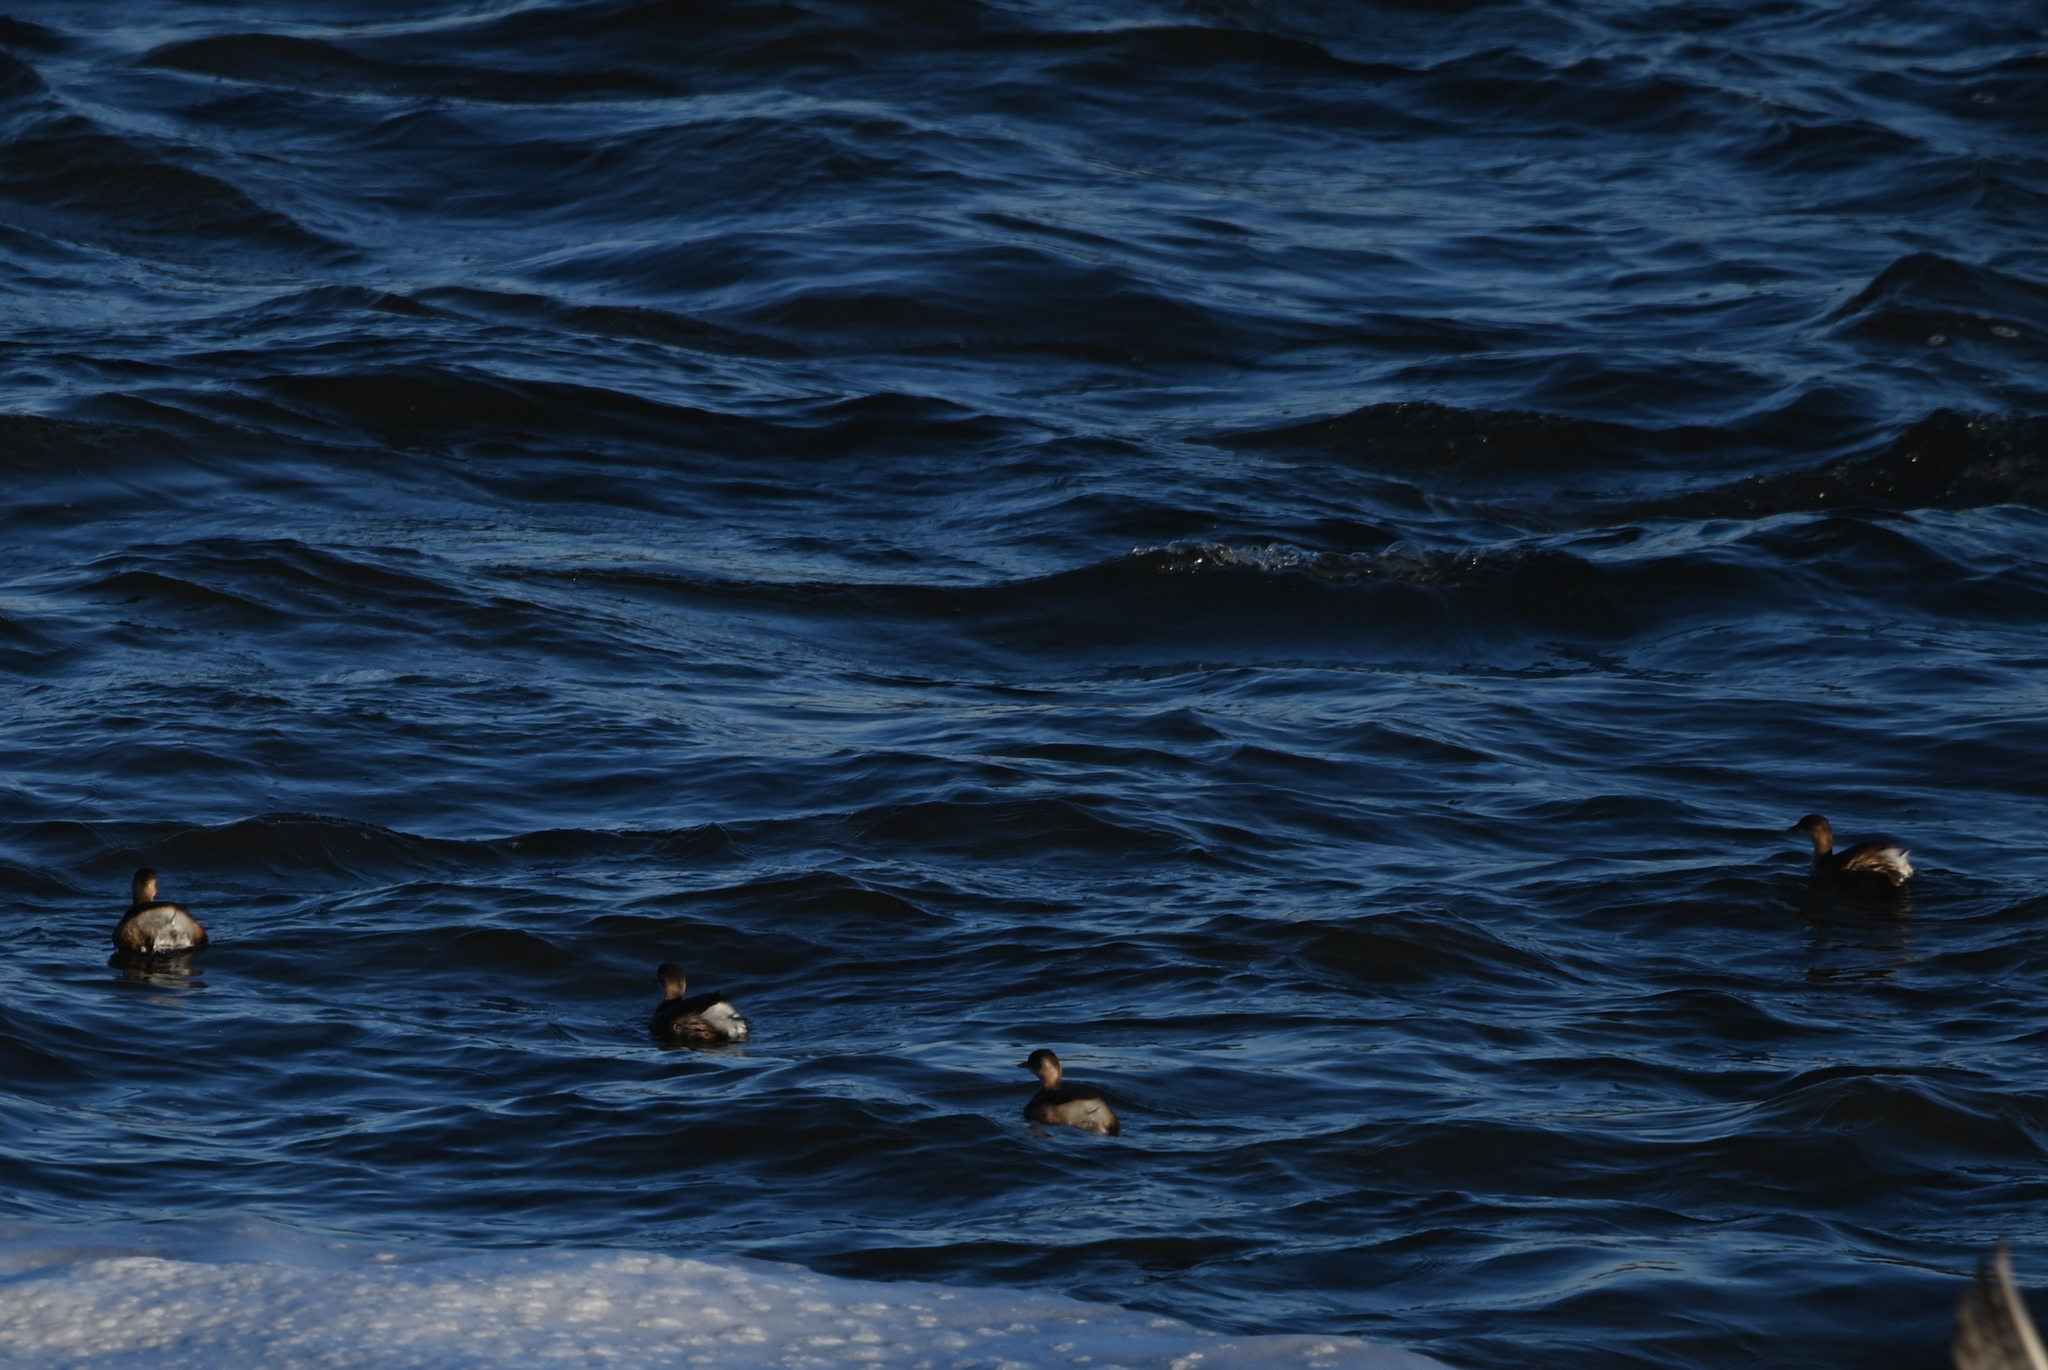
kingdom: Animalia
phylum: Chordata
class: Aves
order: Podicipediformes
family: Podicipedidae
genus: Tachybaptus
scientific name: Tachybaptus ruficollis
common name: Little grebe
